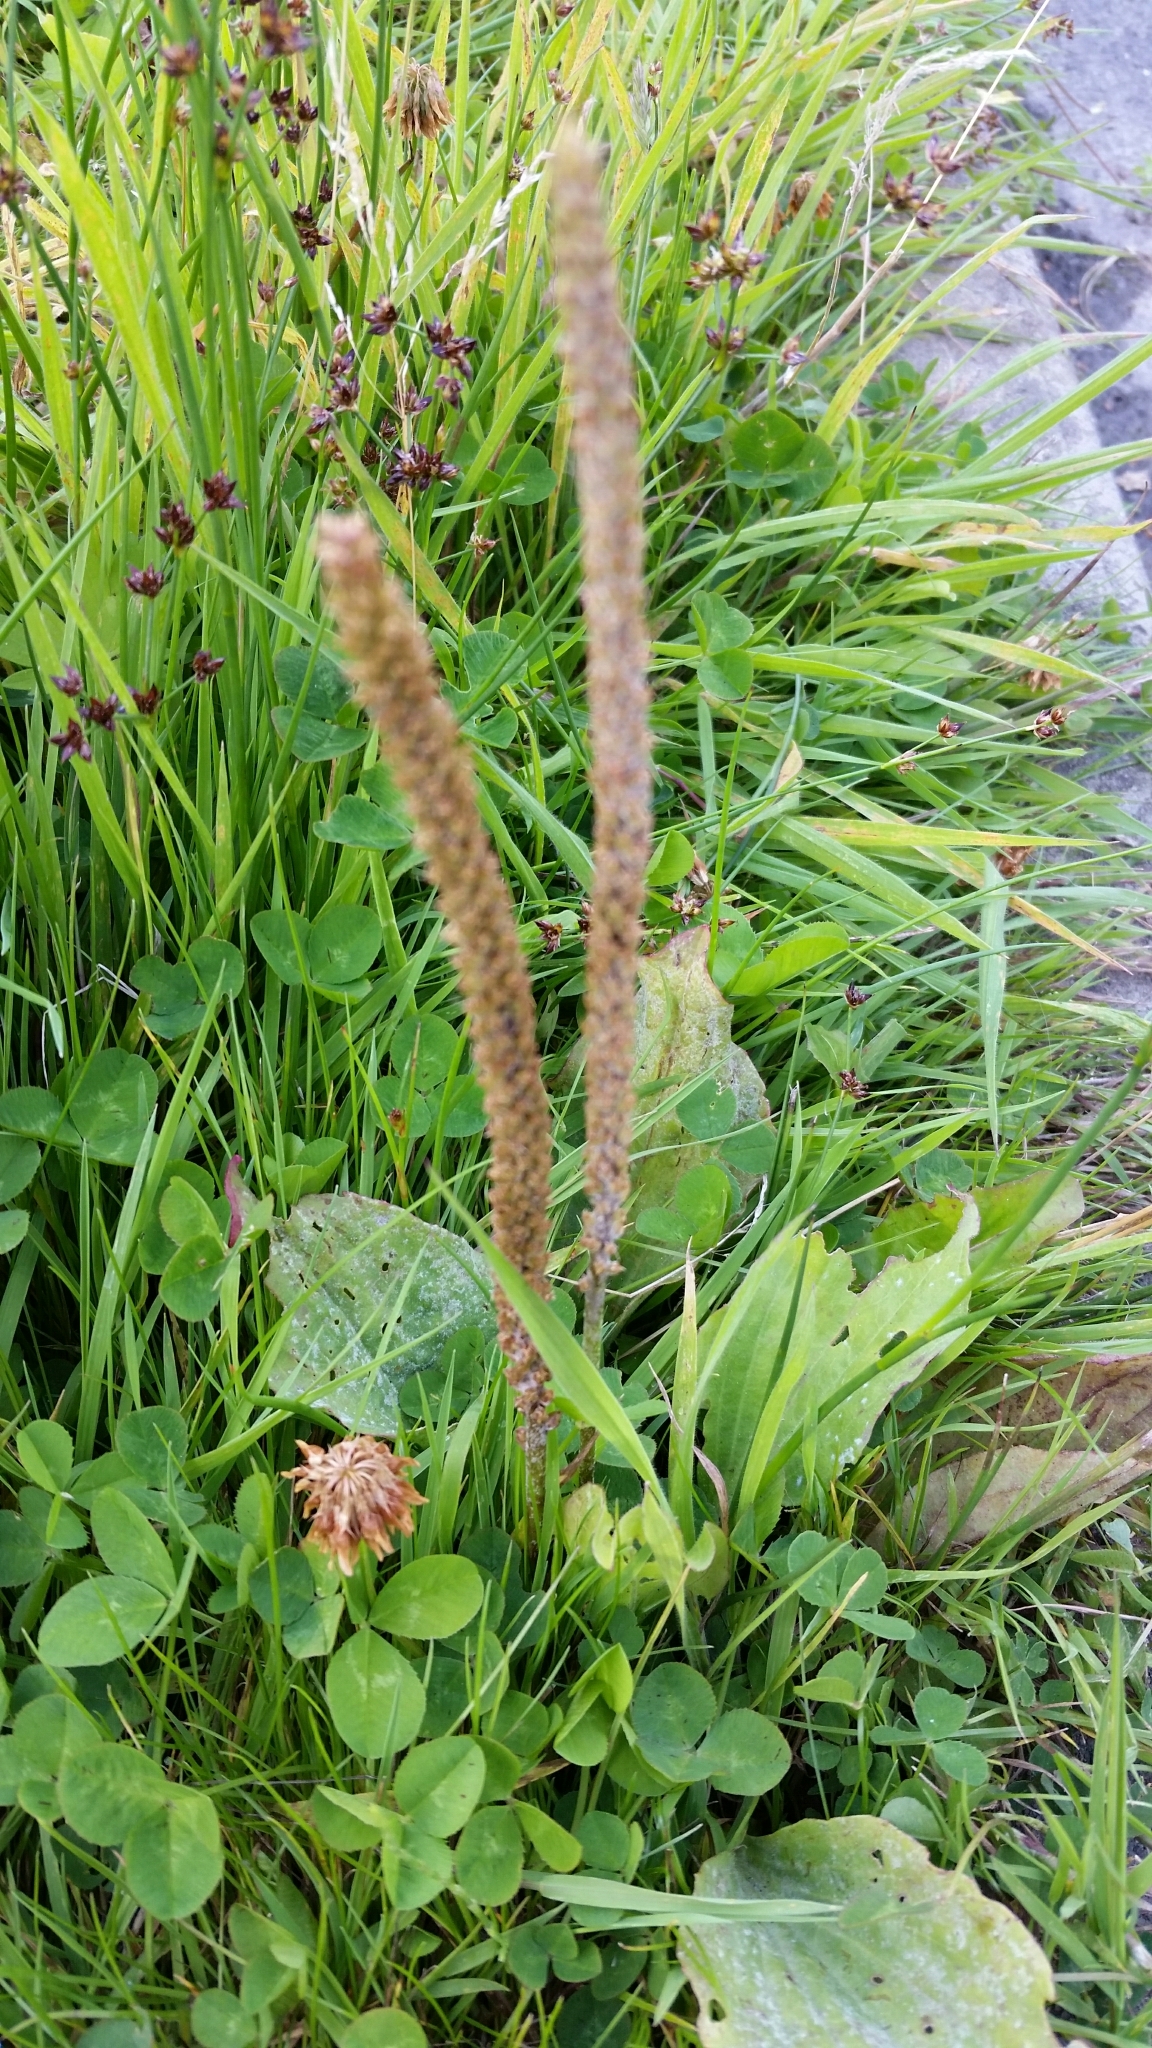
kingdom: Plantae
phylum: Tracheophyta
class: Magnoliopsida
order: Lamiales
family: Plantaginaceae
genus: Plantago
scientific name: Plantago major
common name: Common plantain
